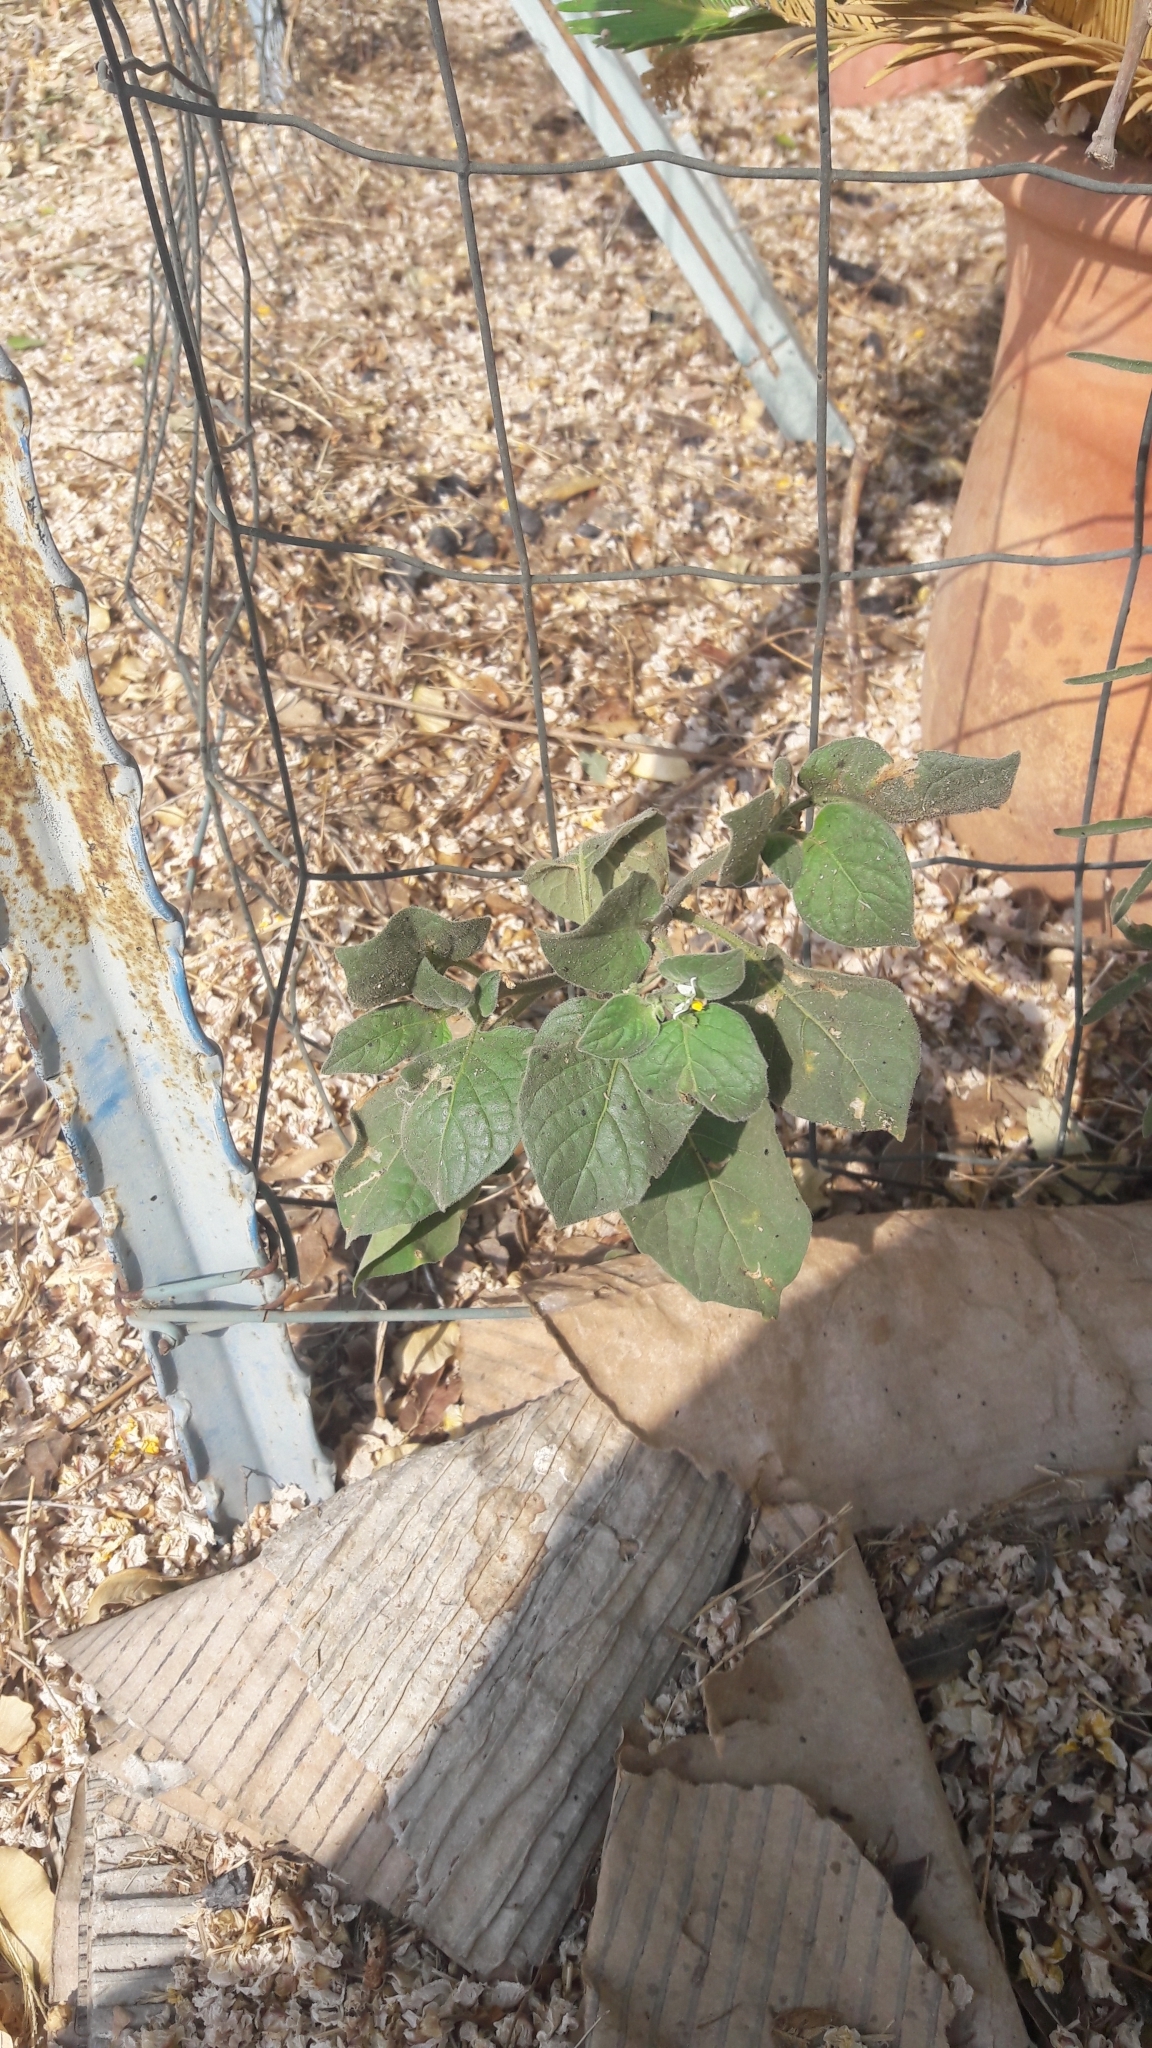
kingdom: Plantae
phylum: Tracheophyta
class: Magnoliopsida
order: Solanales
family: Solanaceae
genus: Solanum
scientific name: Solanum villosum
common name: Red nightshade
